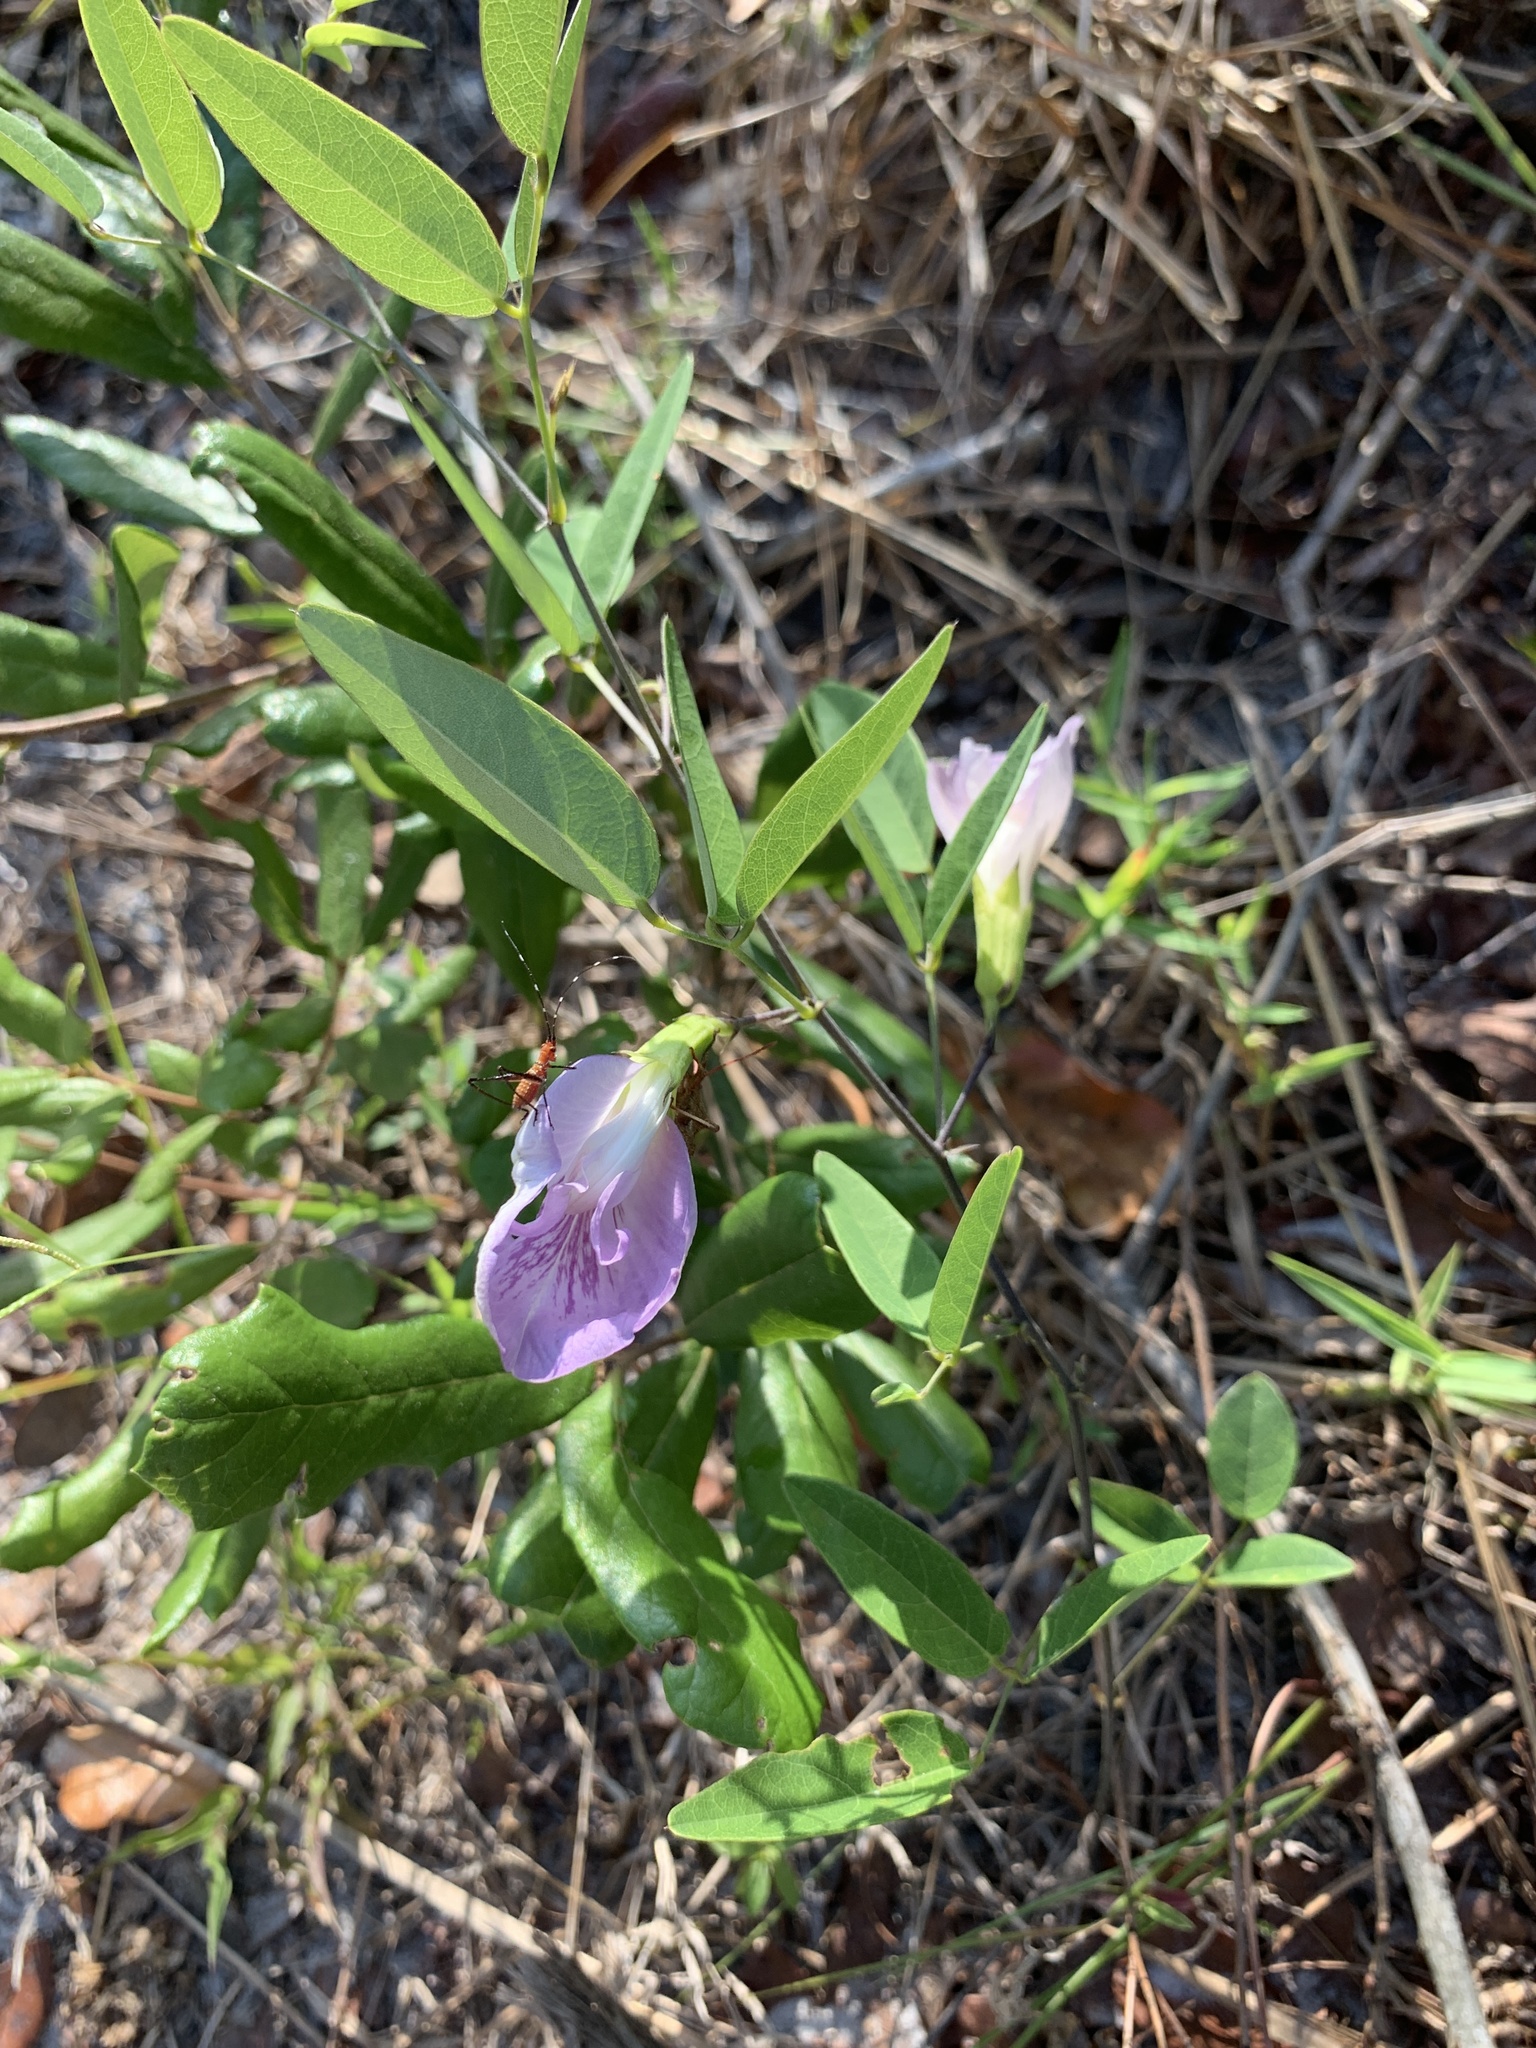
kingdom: Plantae
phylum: Tracheophyta
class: Magnoliopsida
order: Fabales
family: Fabaceae
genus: Clitoria
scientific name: Clitoria mariana
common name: Butterfly-pea
